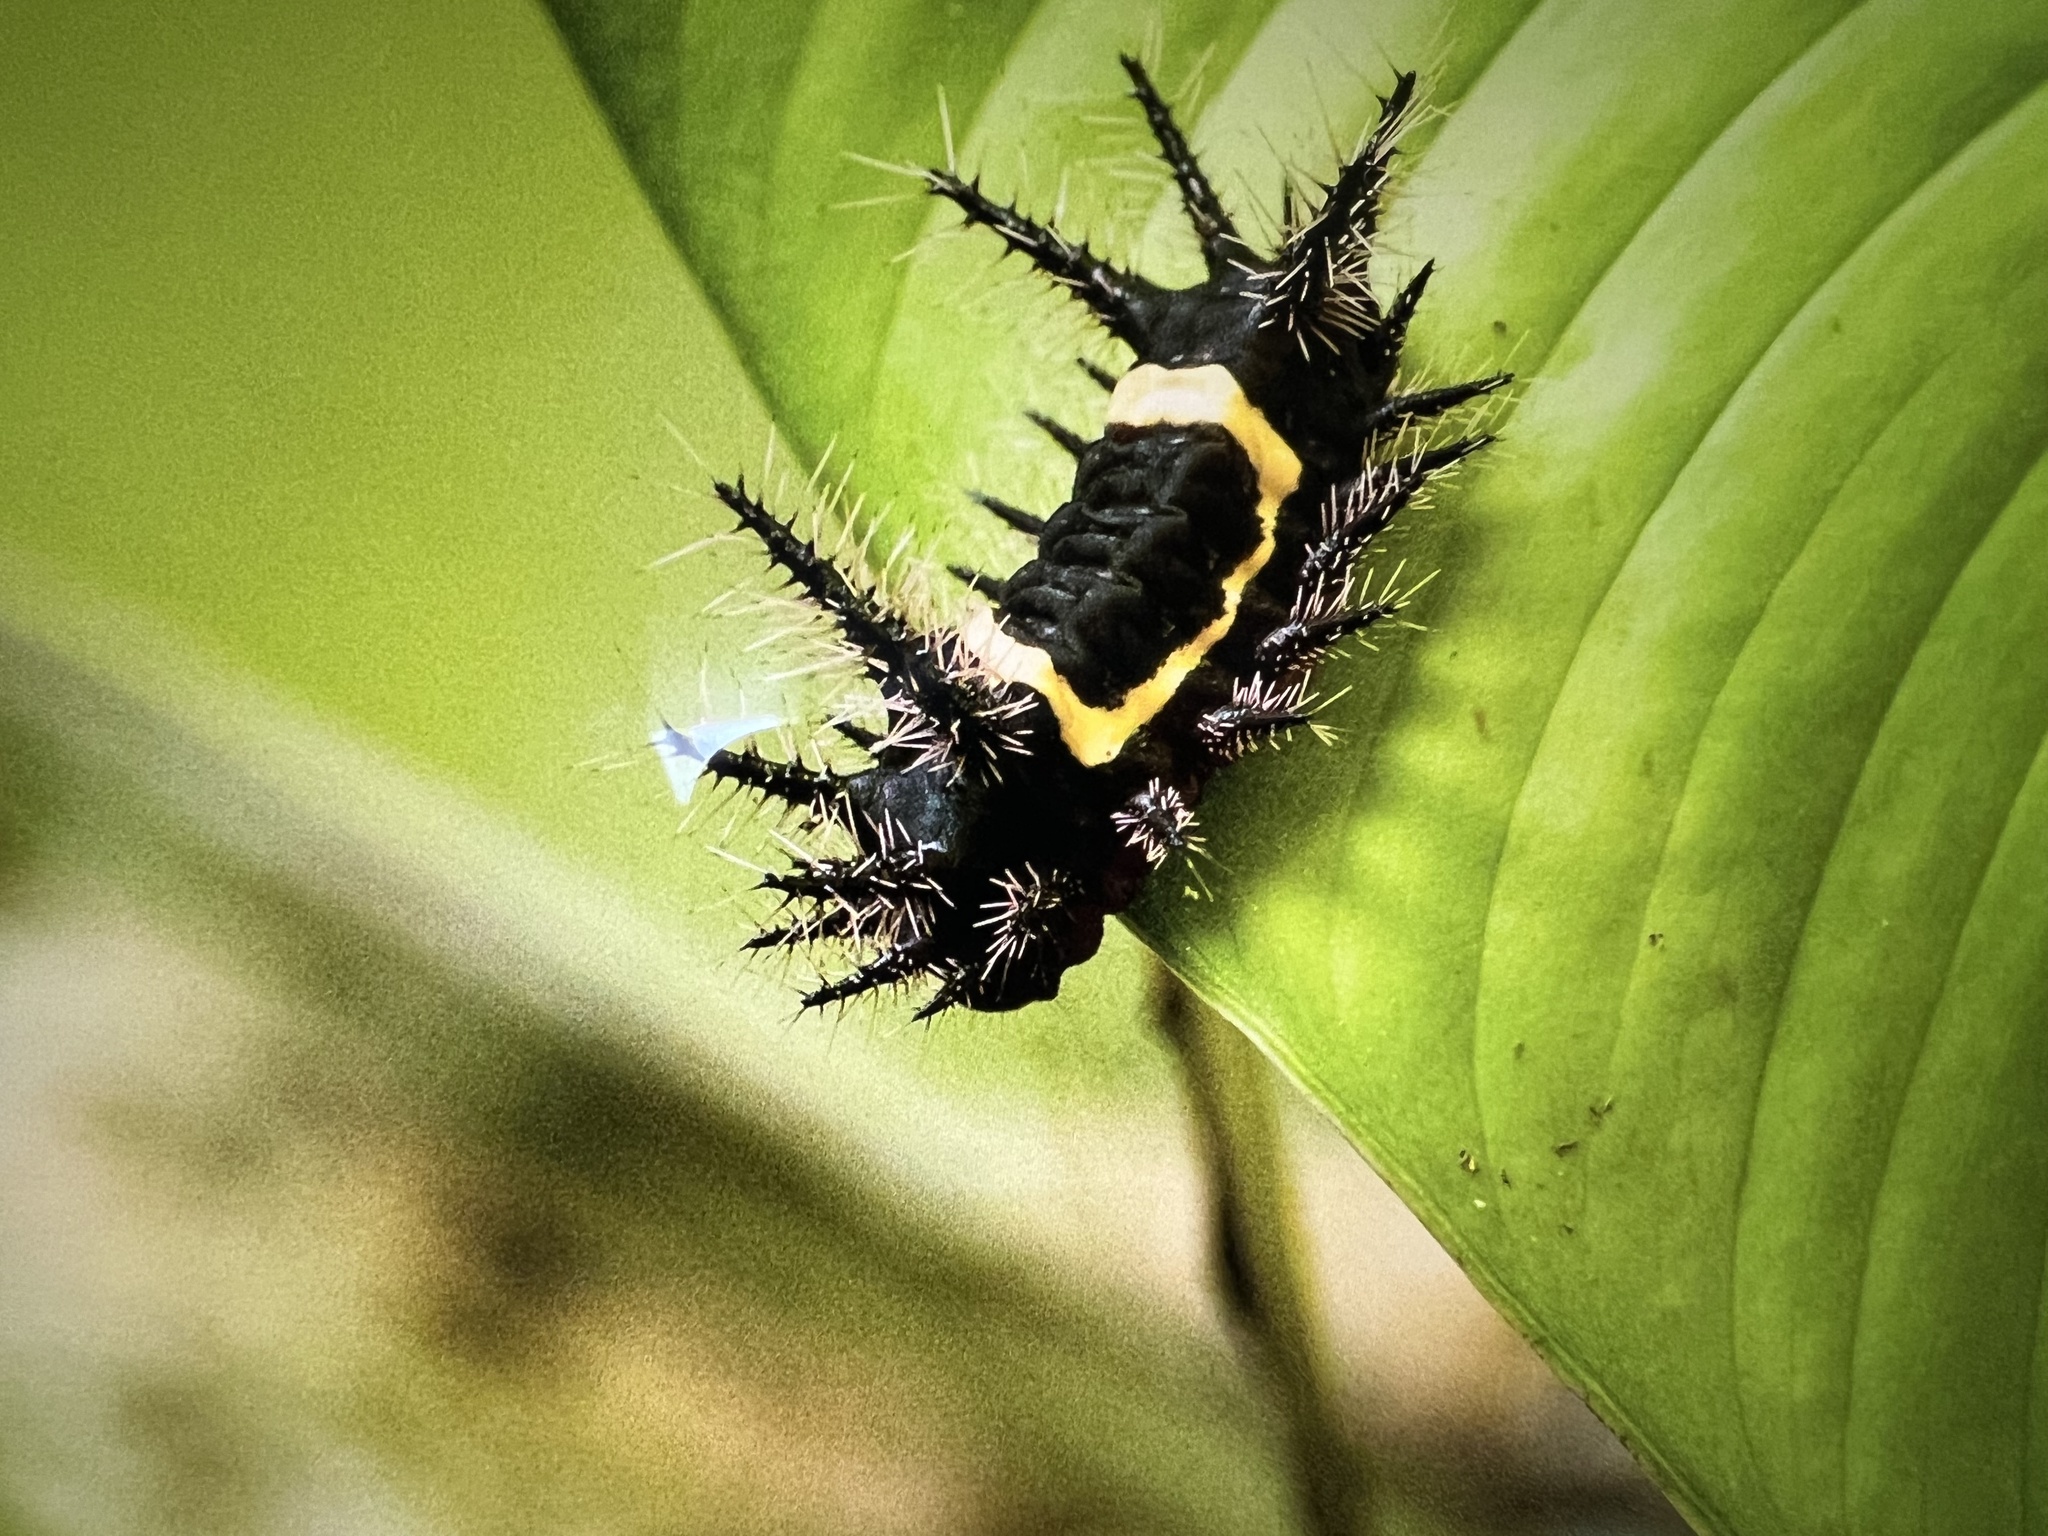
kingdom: Animalia
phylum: Arthropoda
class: Insecta
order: Lepidoptera
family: Limacodidae
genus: Sibine
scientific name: Sibine nesea
